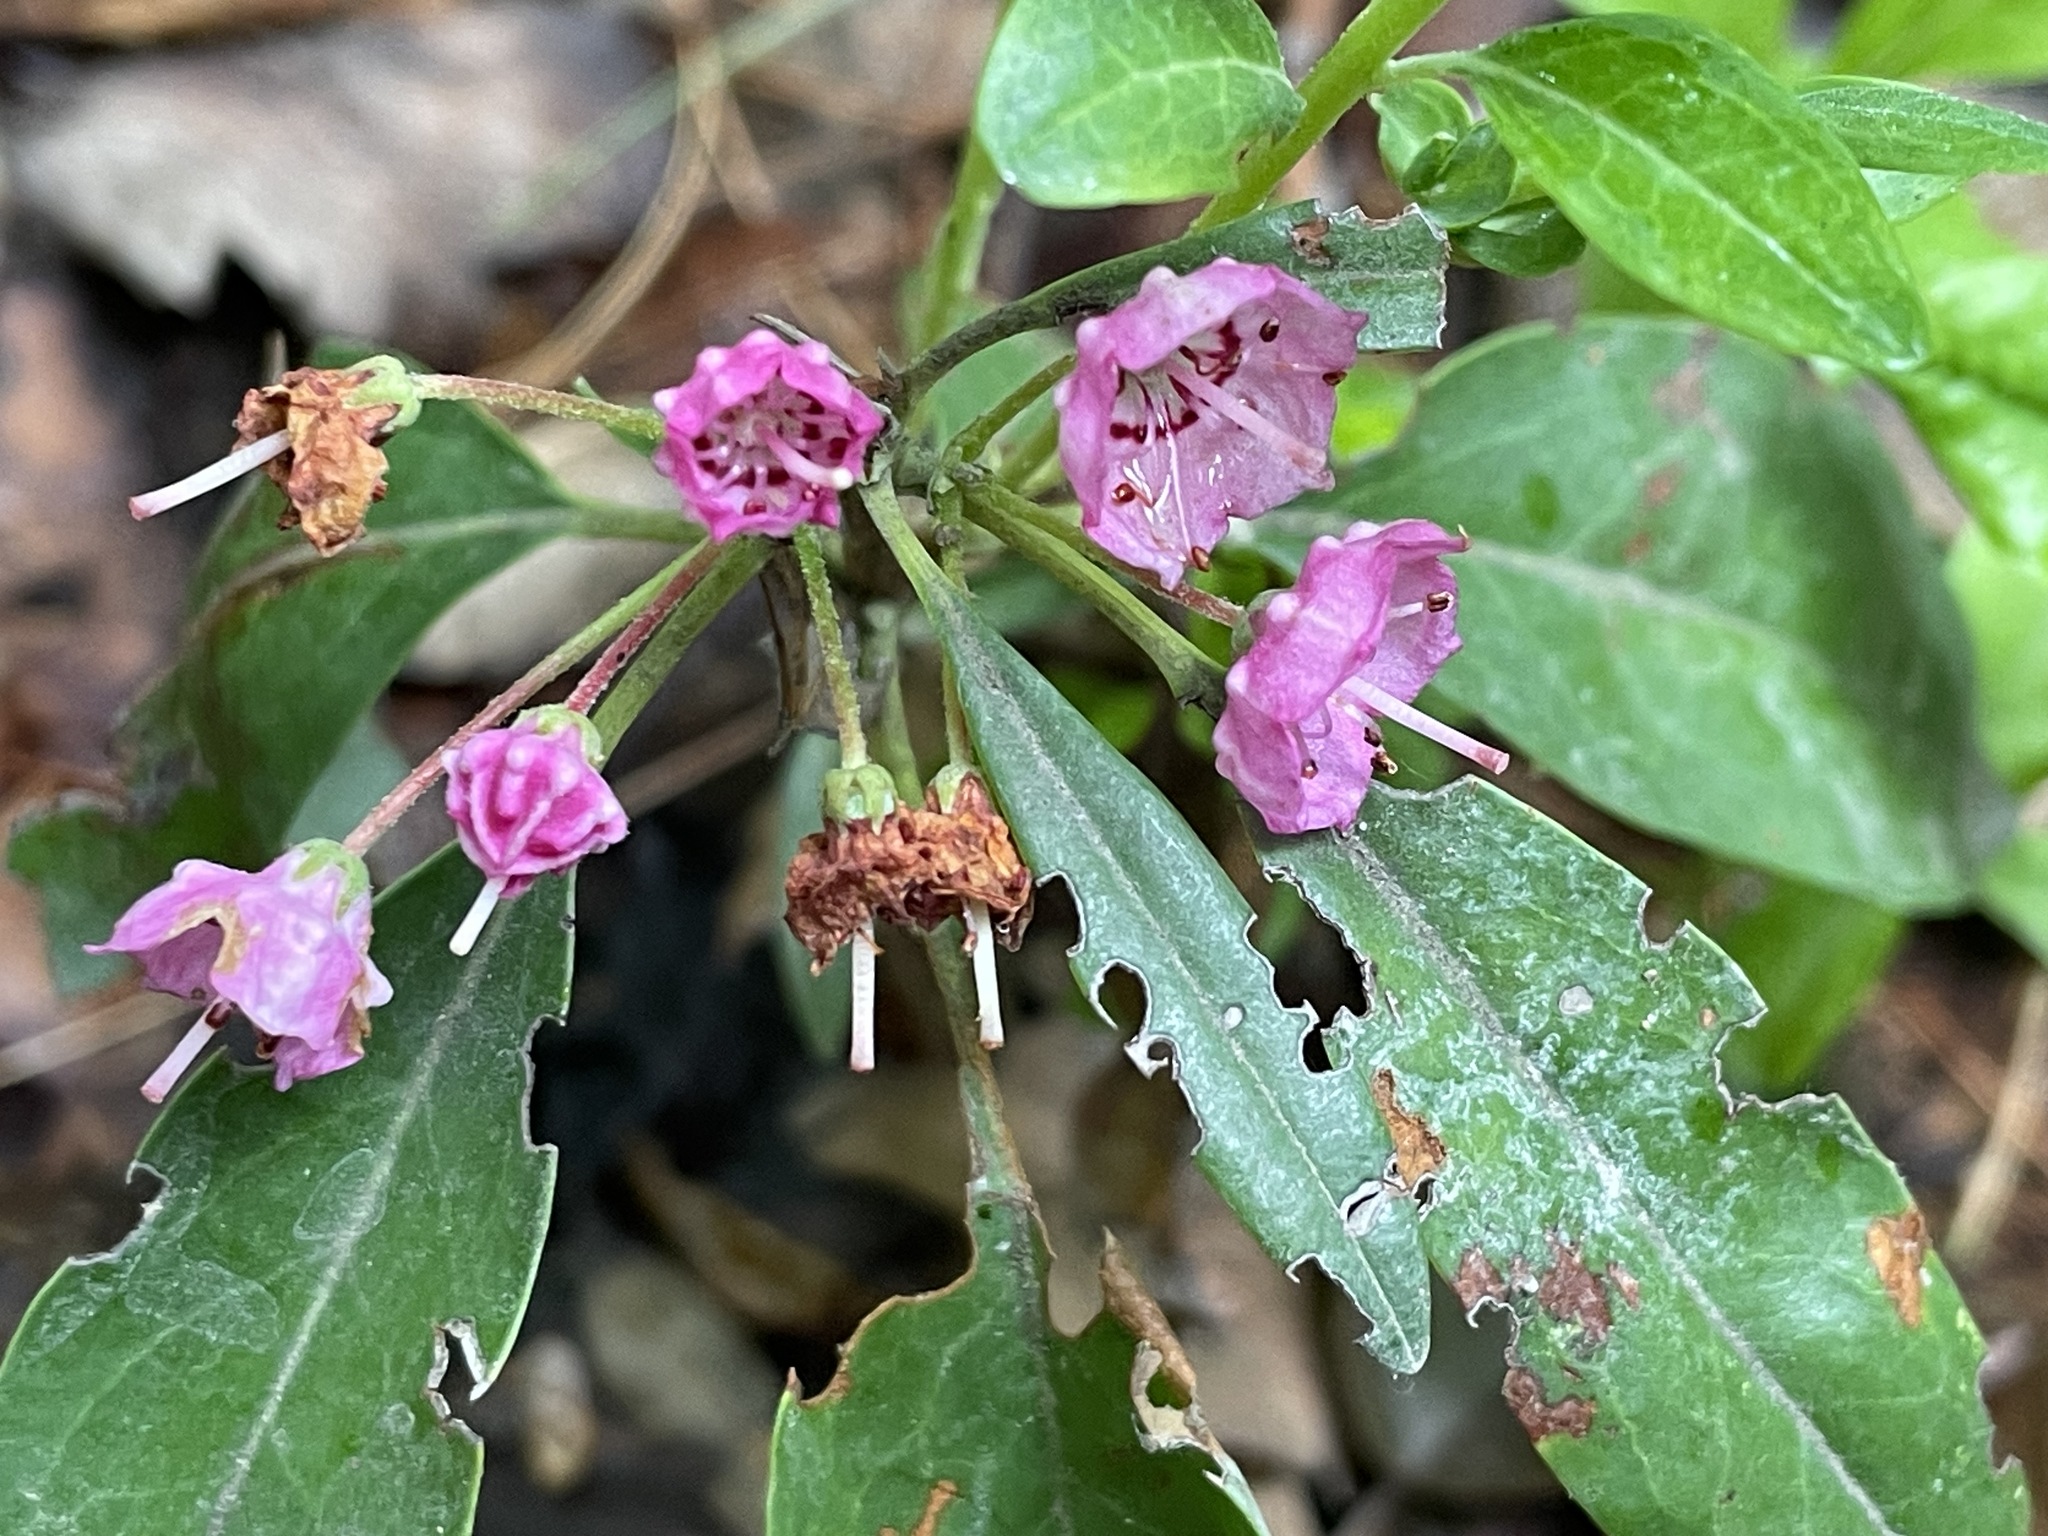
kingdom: Plantae
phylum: Tracheophyta
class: Magnoliopsida
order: Ericales
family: Ericaceae
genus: Kalmia
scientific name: Kalmia angustifolia
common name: Sheep-laurel
